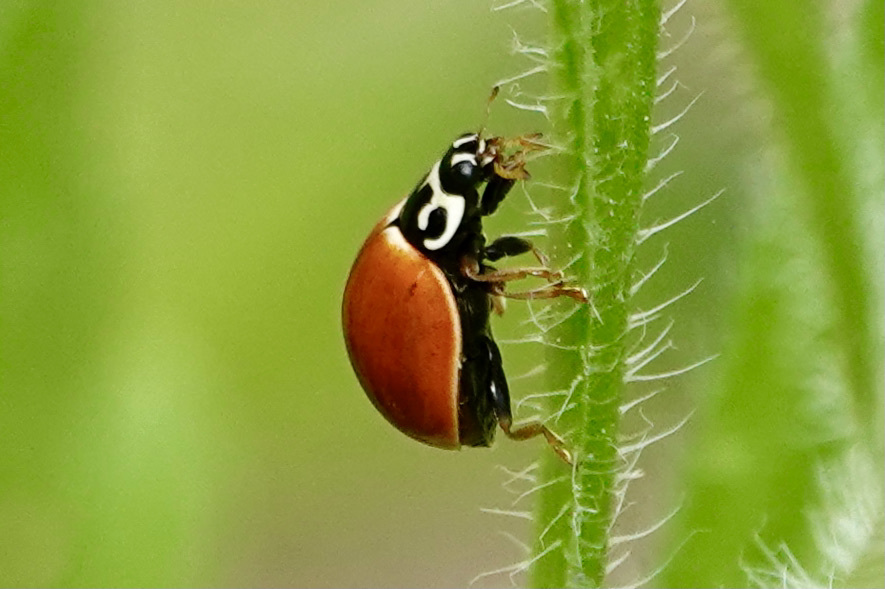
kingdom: Animalia
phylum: Arthropoda
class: Insecta
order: Coleoptera
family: Coccinellidae
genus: Cycloneda
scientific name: Cycloneda munda
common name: Polished lady beetle
